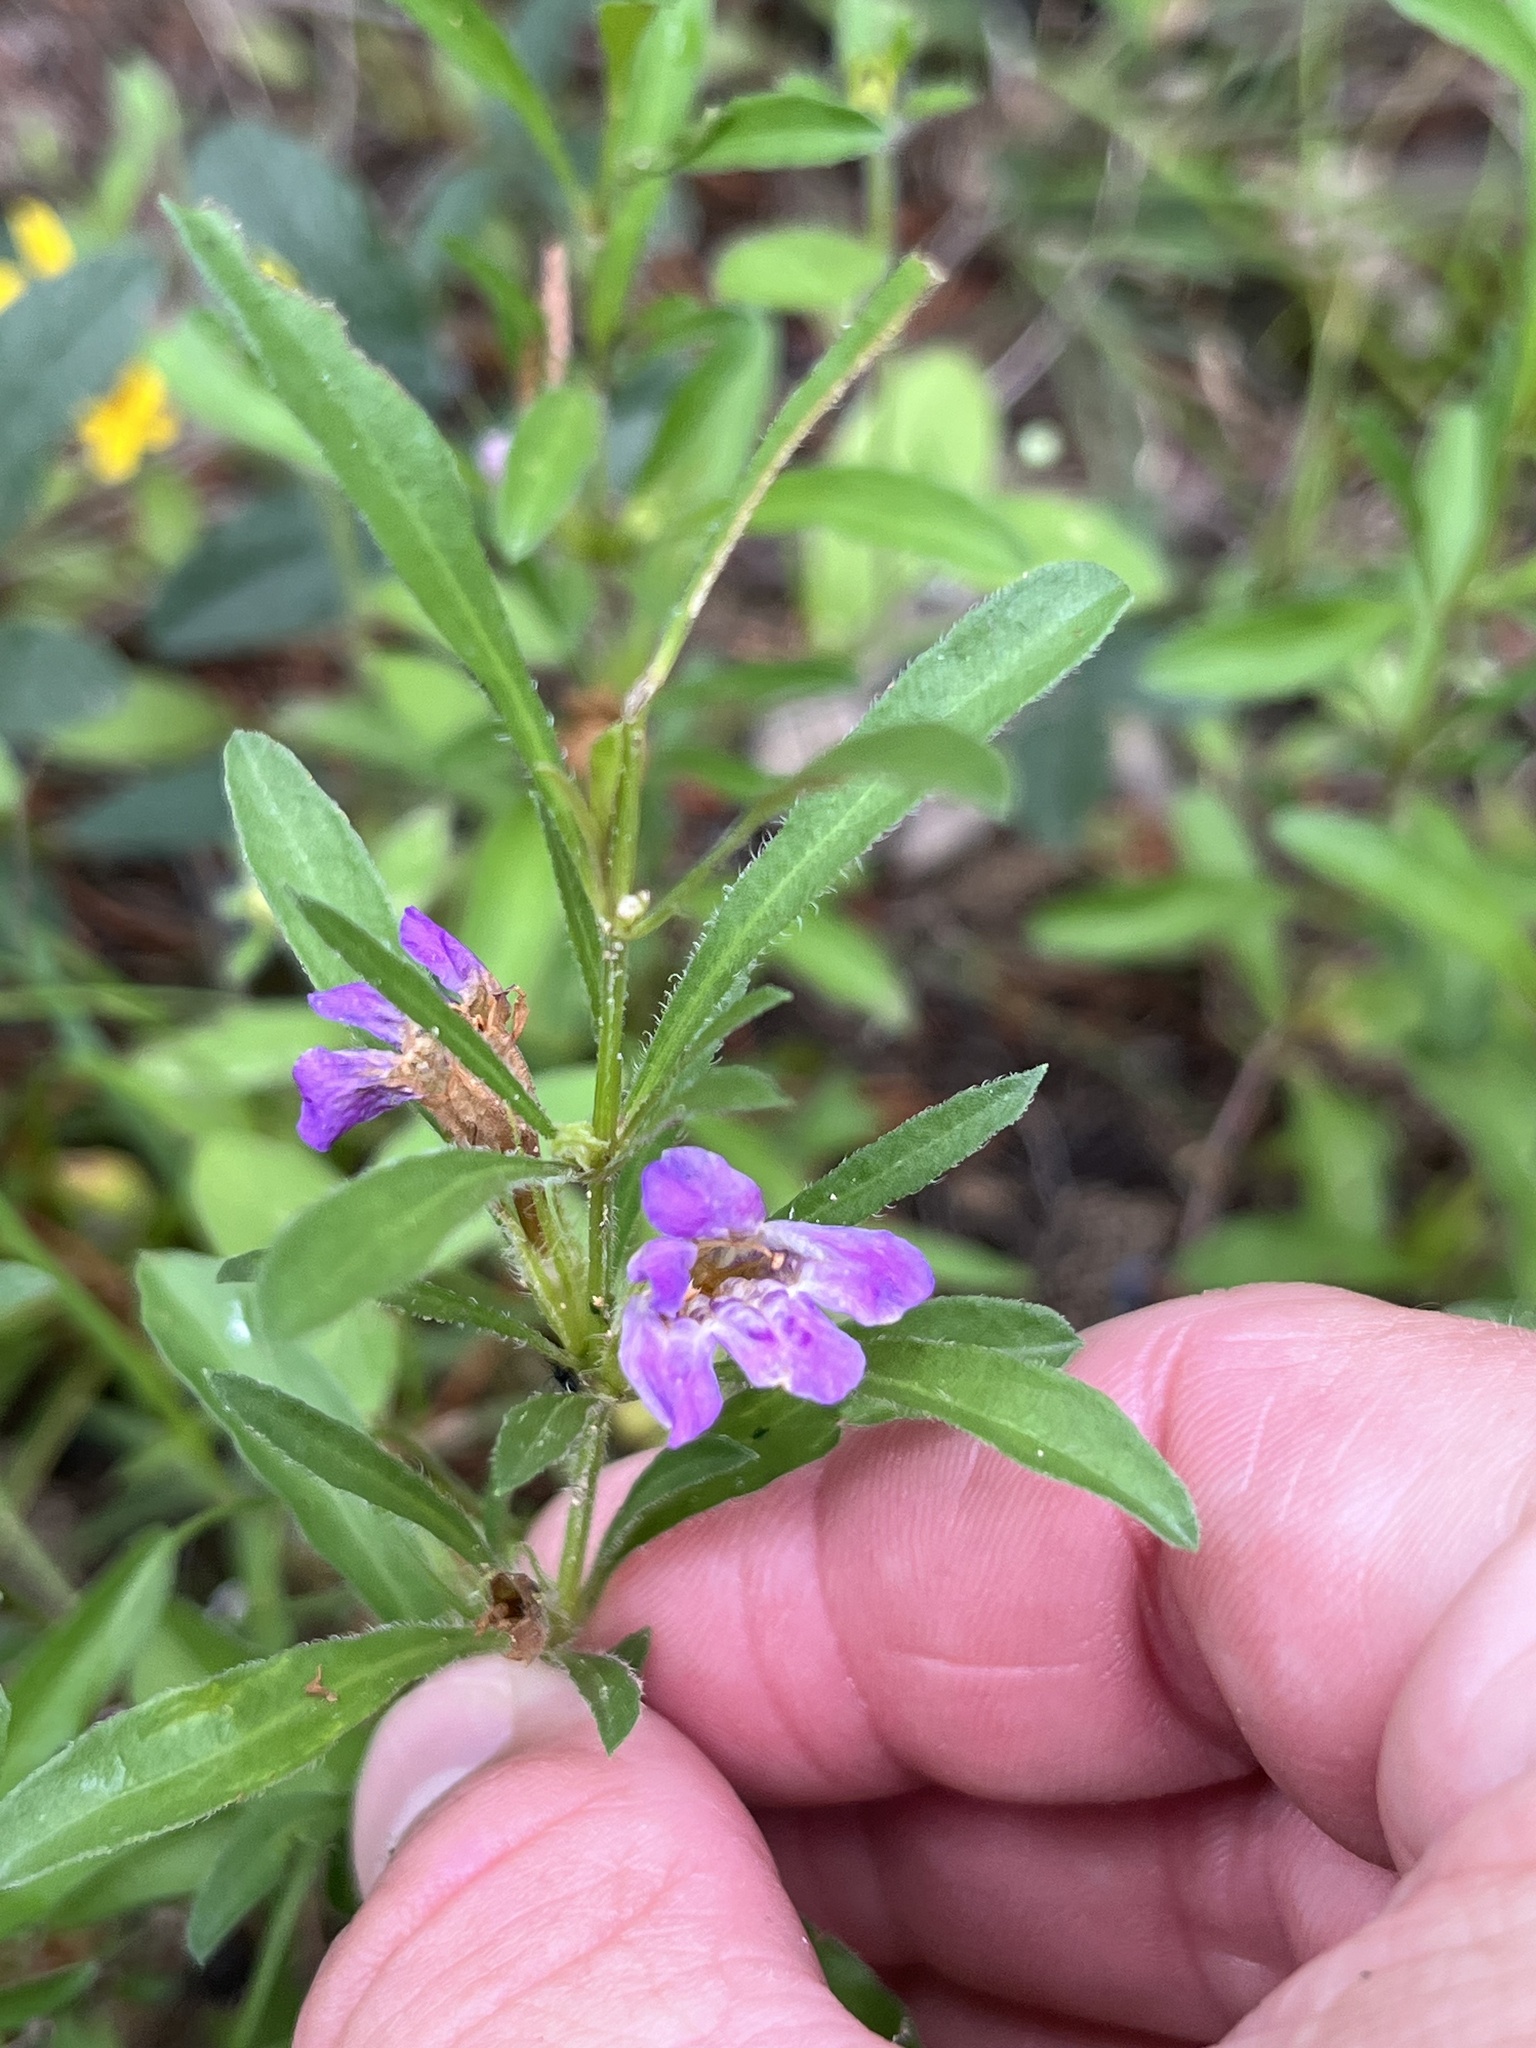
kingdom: Plantae
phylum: Tracheophyta
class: Magnoliopsida
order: Lamiales
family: Acanthaceae
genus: Dyschoriste
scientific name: Dyschoriste linearis
